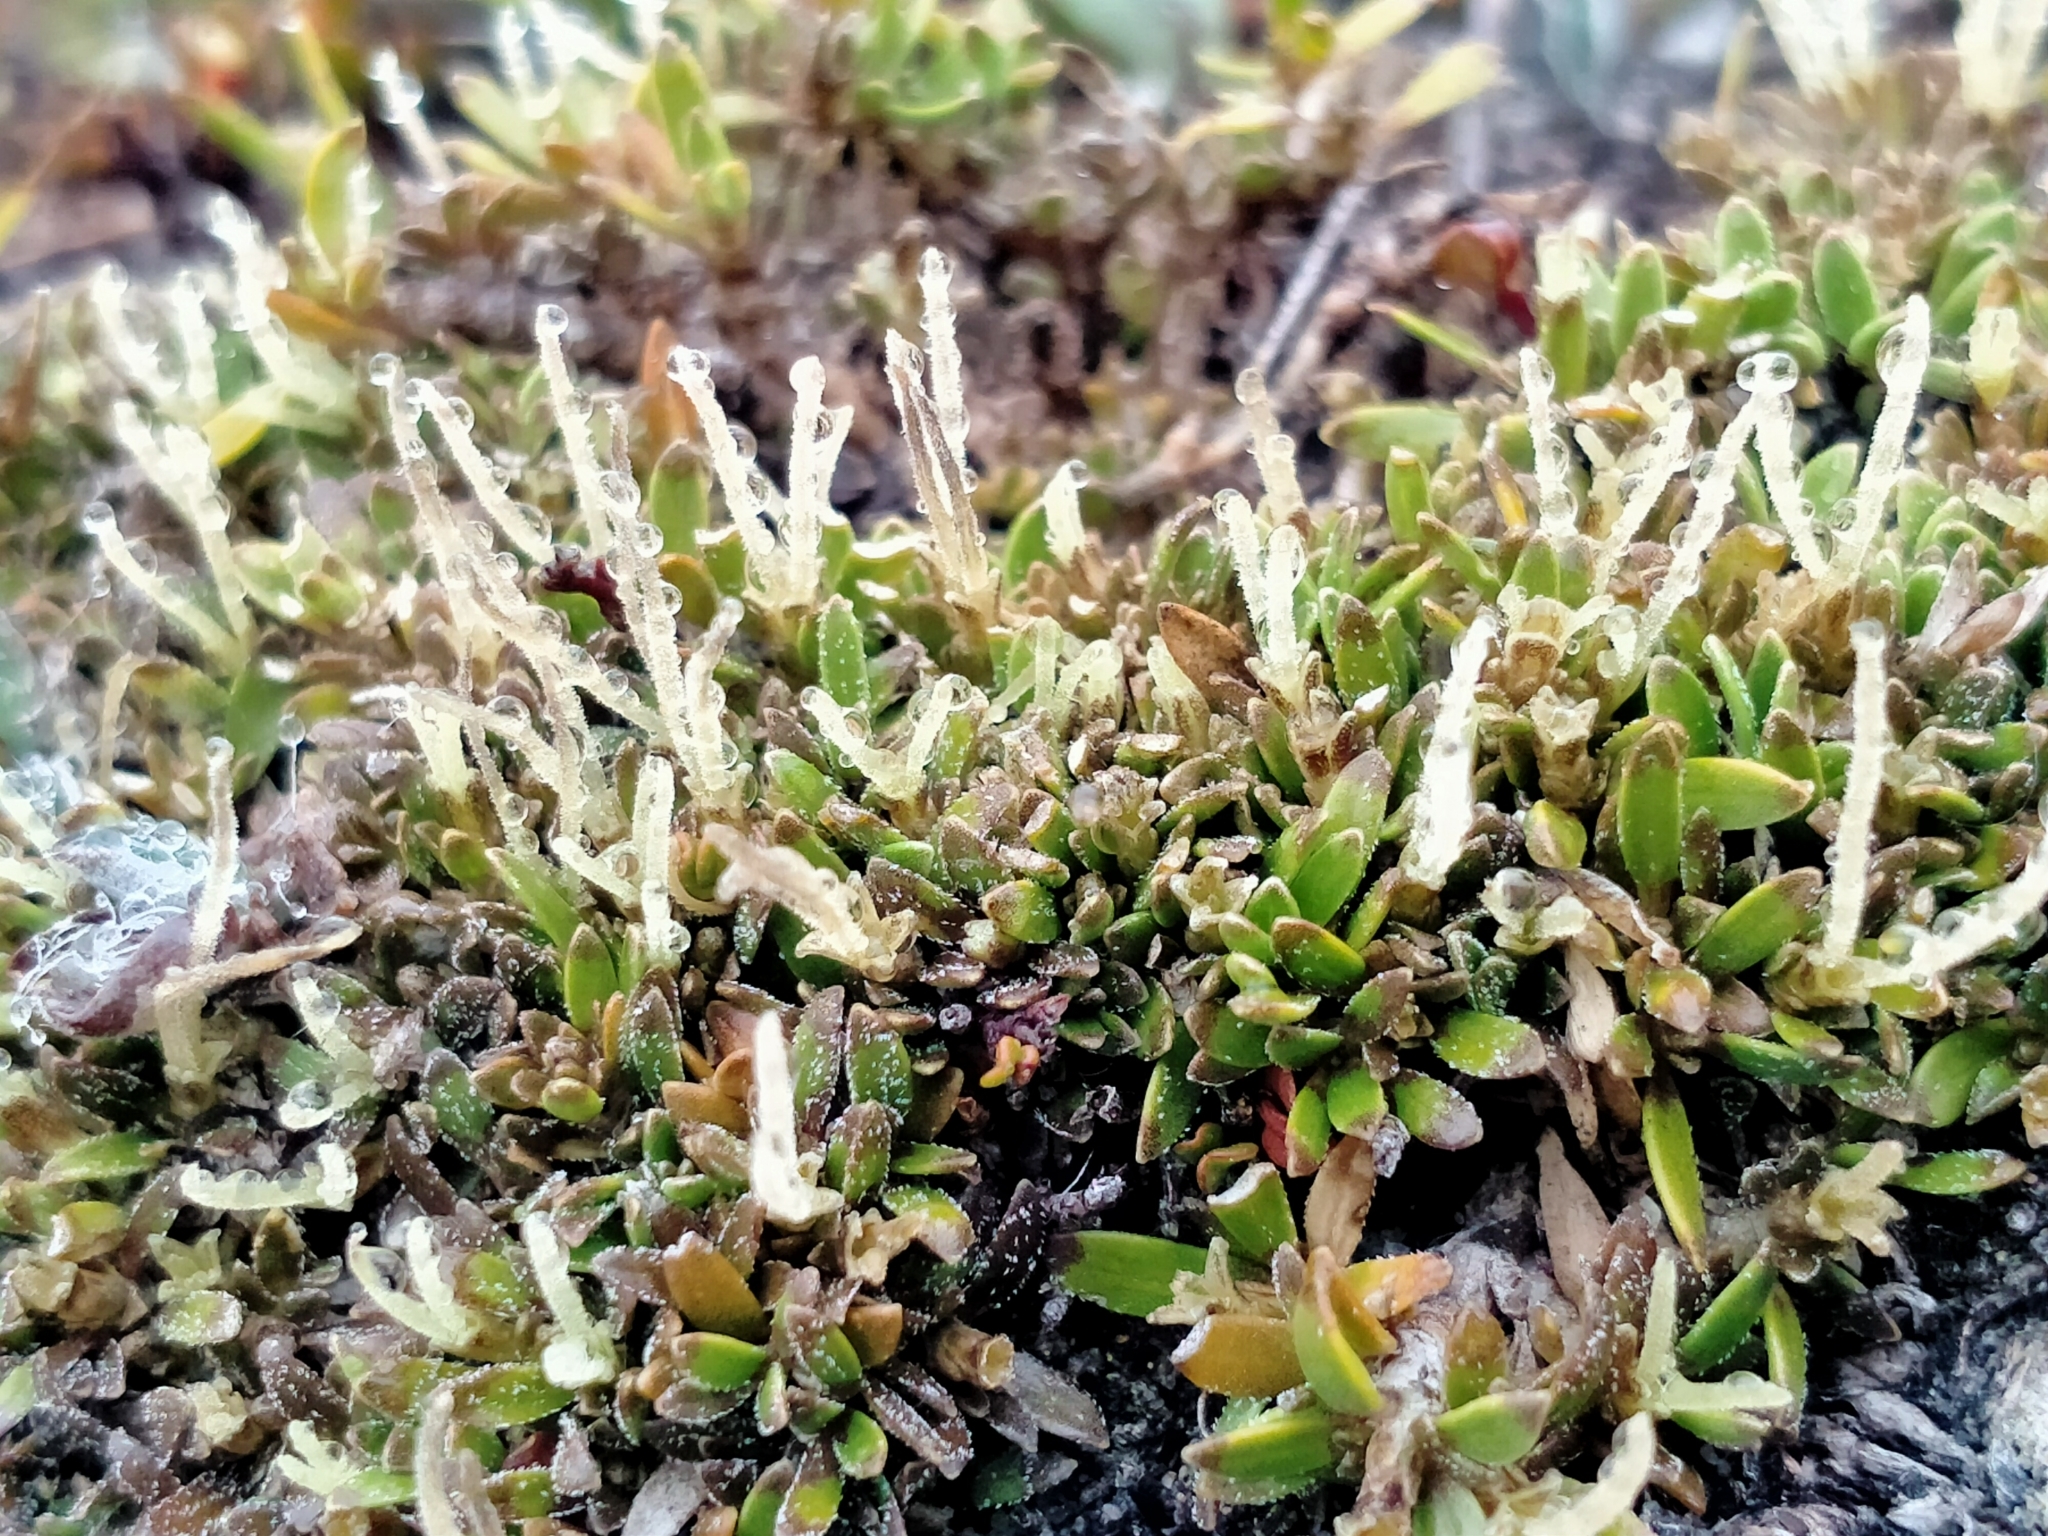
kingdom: Plantae
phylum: Tracheophyta
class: Magnoliopsida
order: Gentianales
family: Rubiaceae
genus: Coprosma
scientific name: Coprosma petriei
